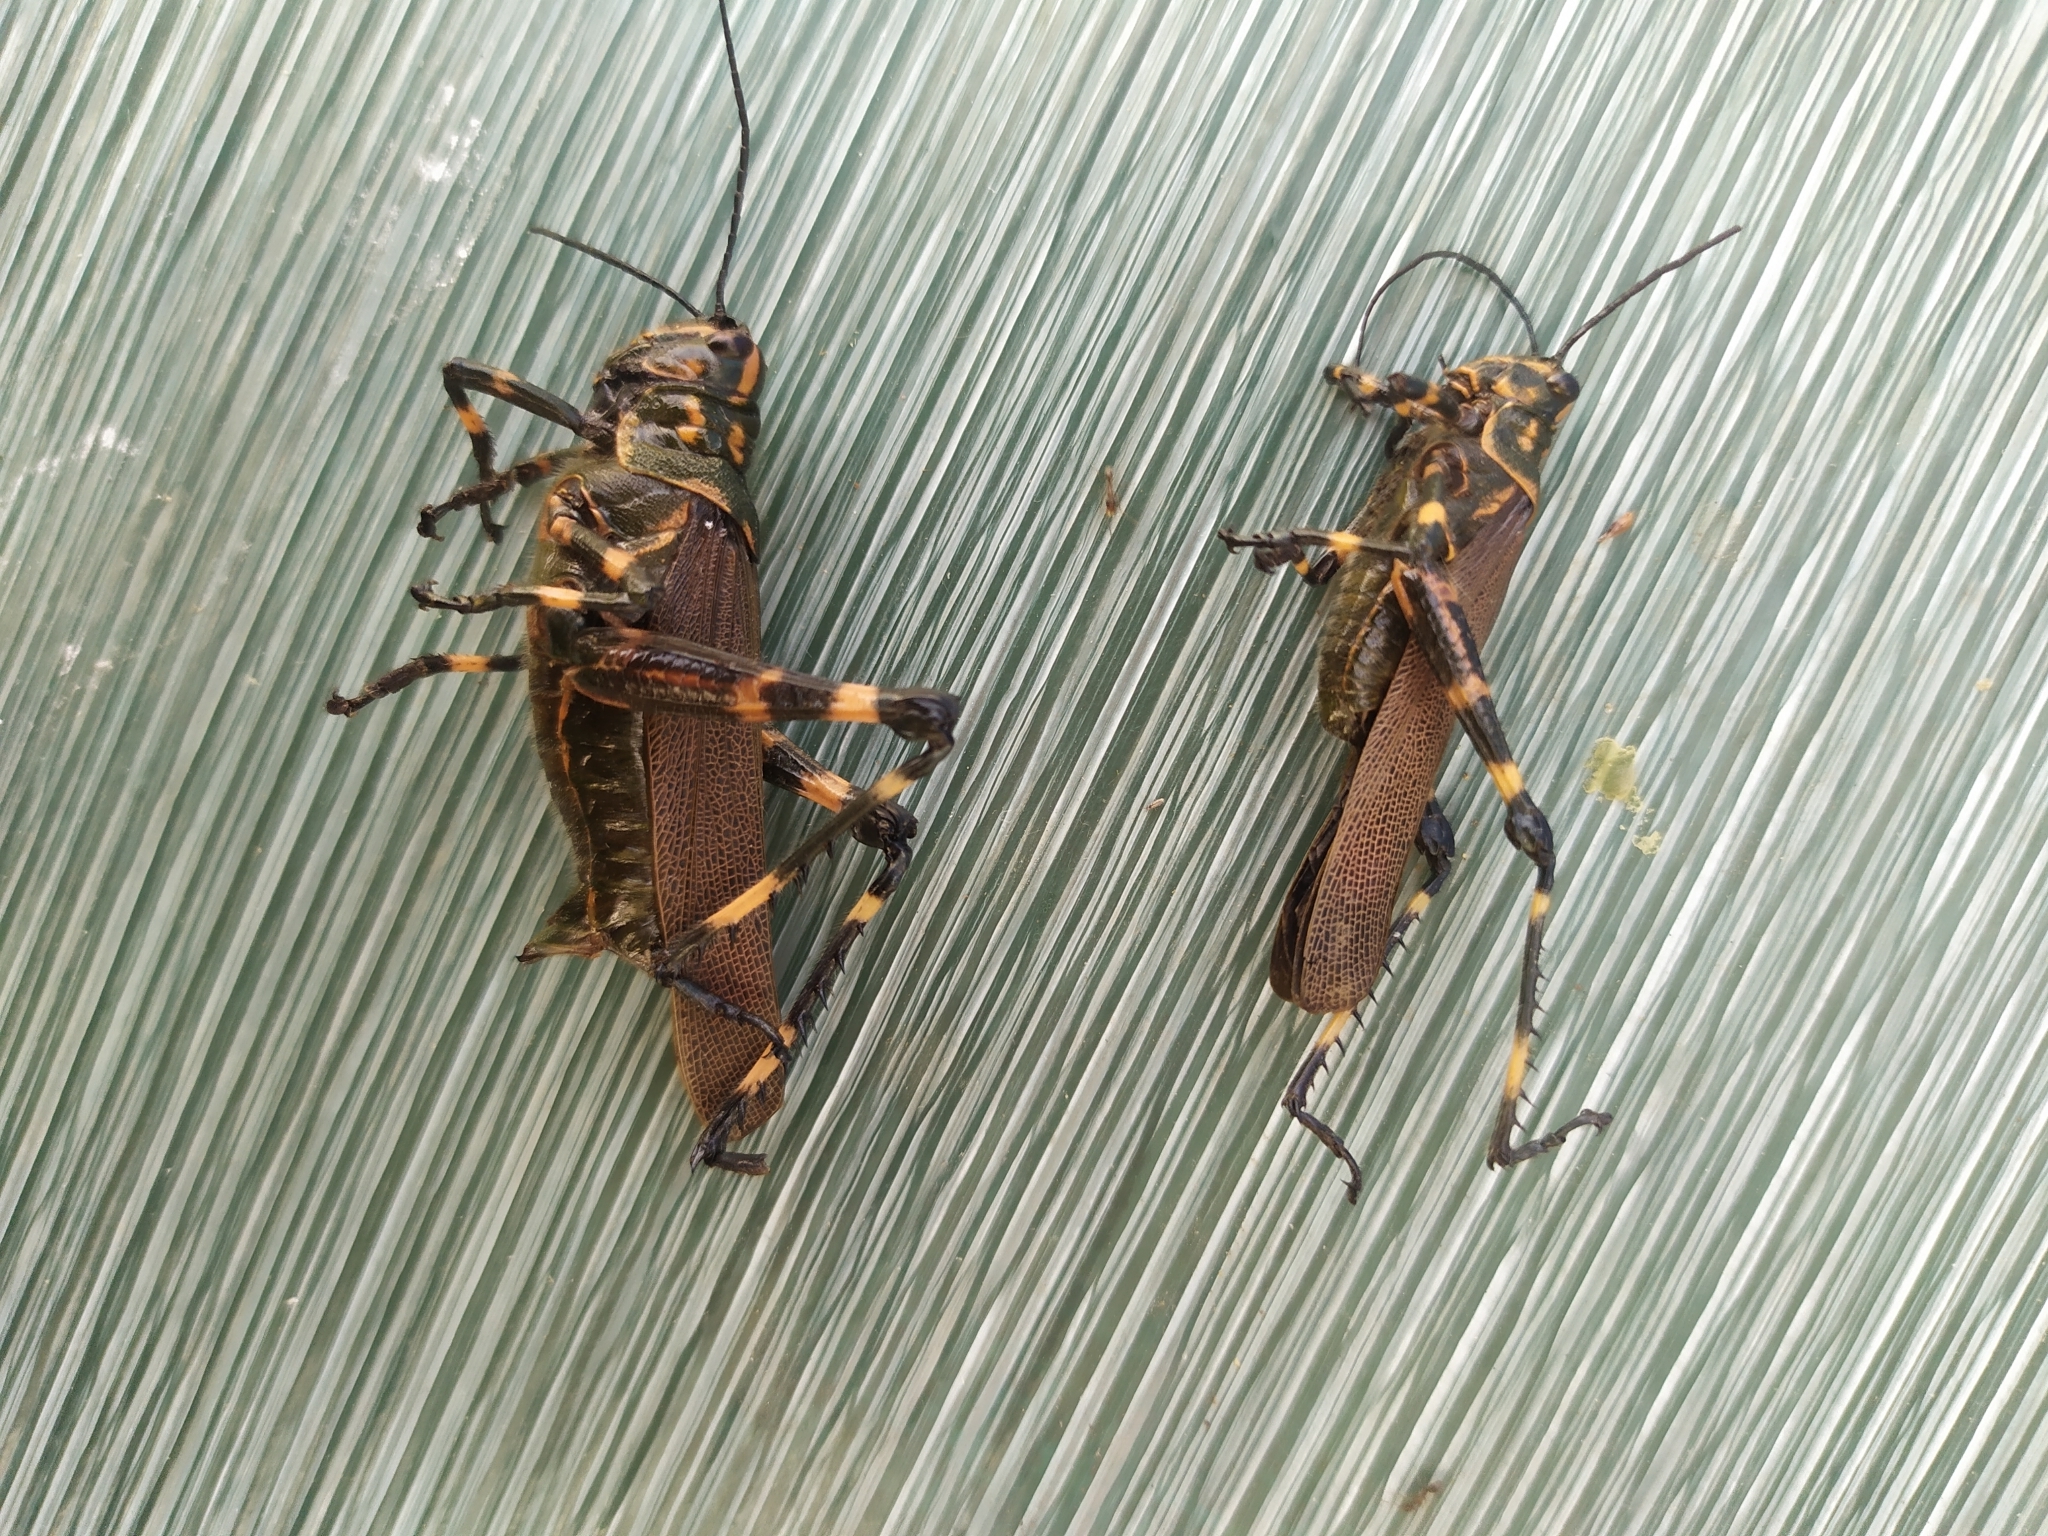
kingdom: Animalia
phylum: Arthropoda
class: Insecta
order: Orthoptera
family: Romaleidae
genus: Chromacris
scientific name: Chromacris speciosa
